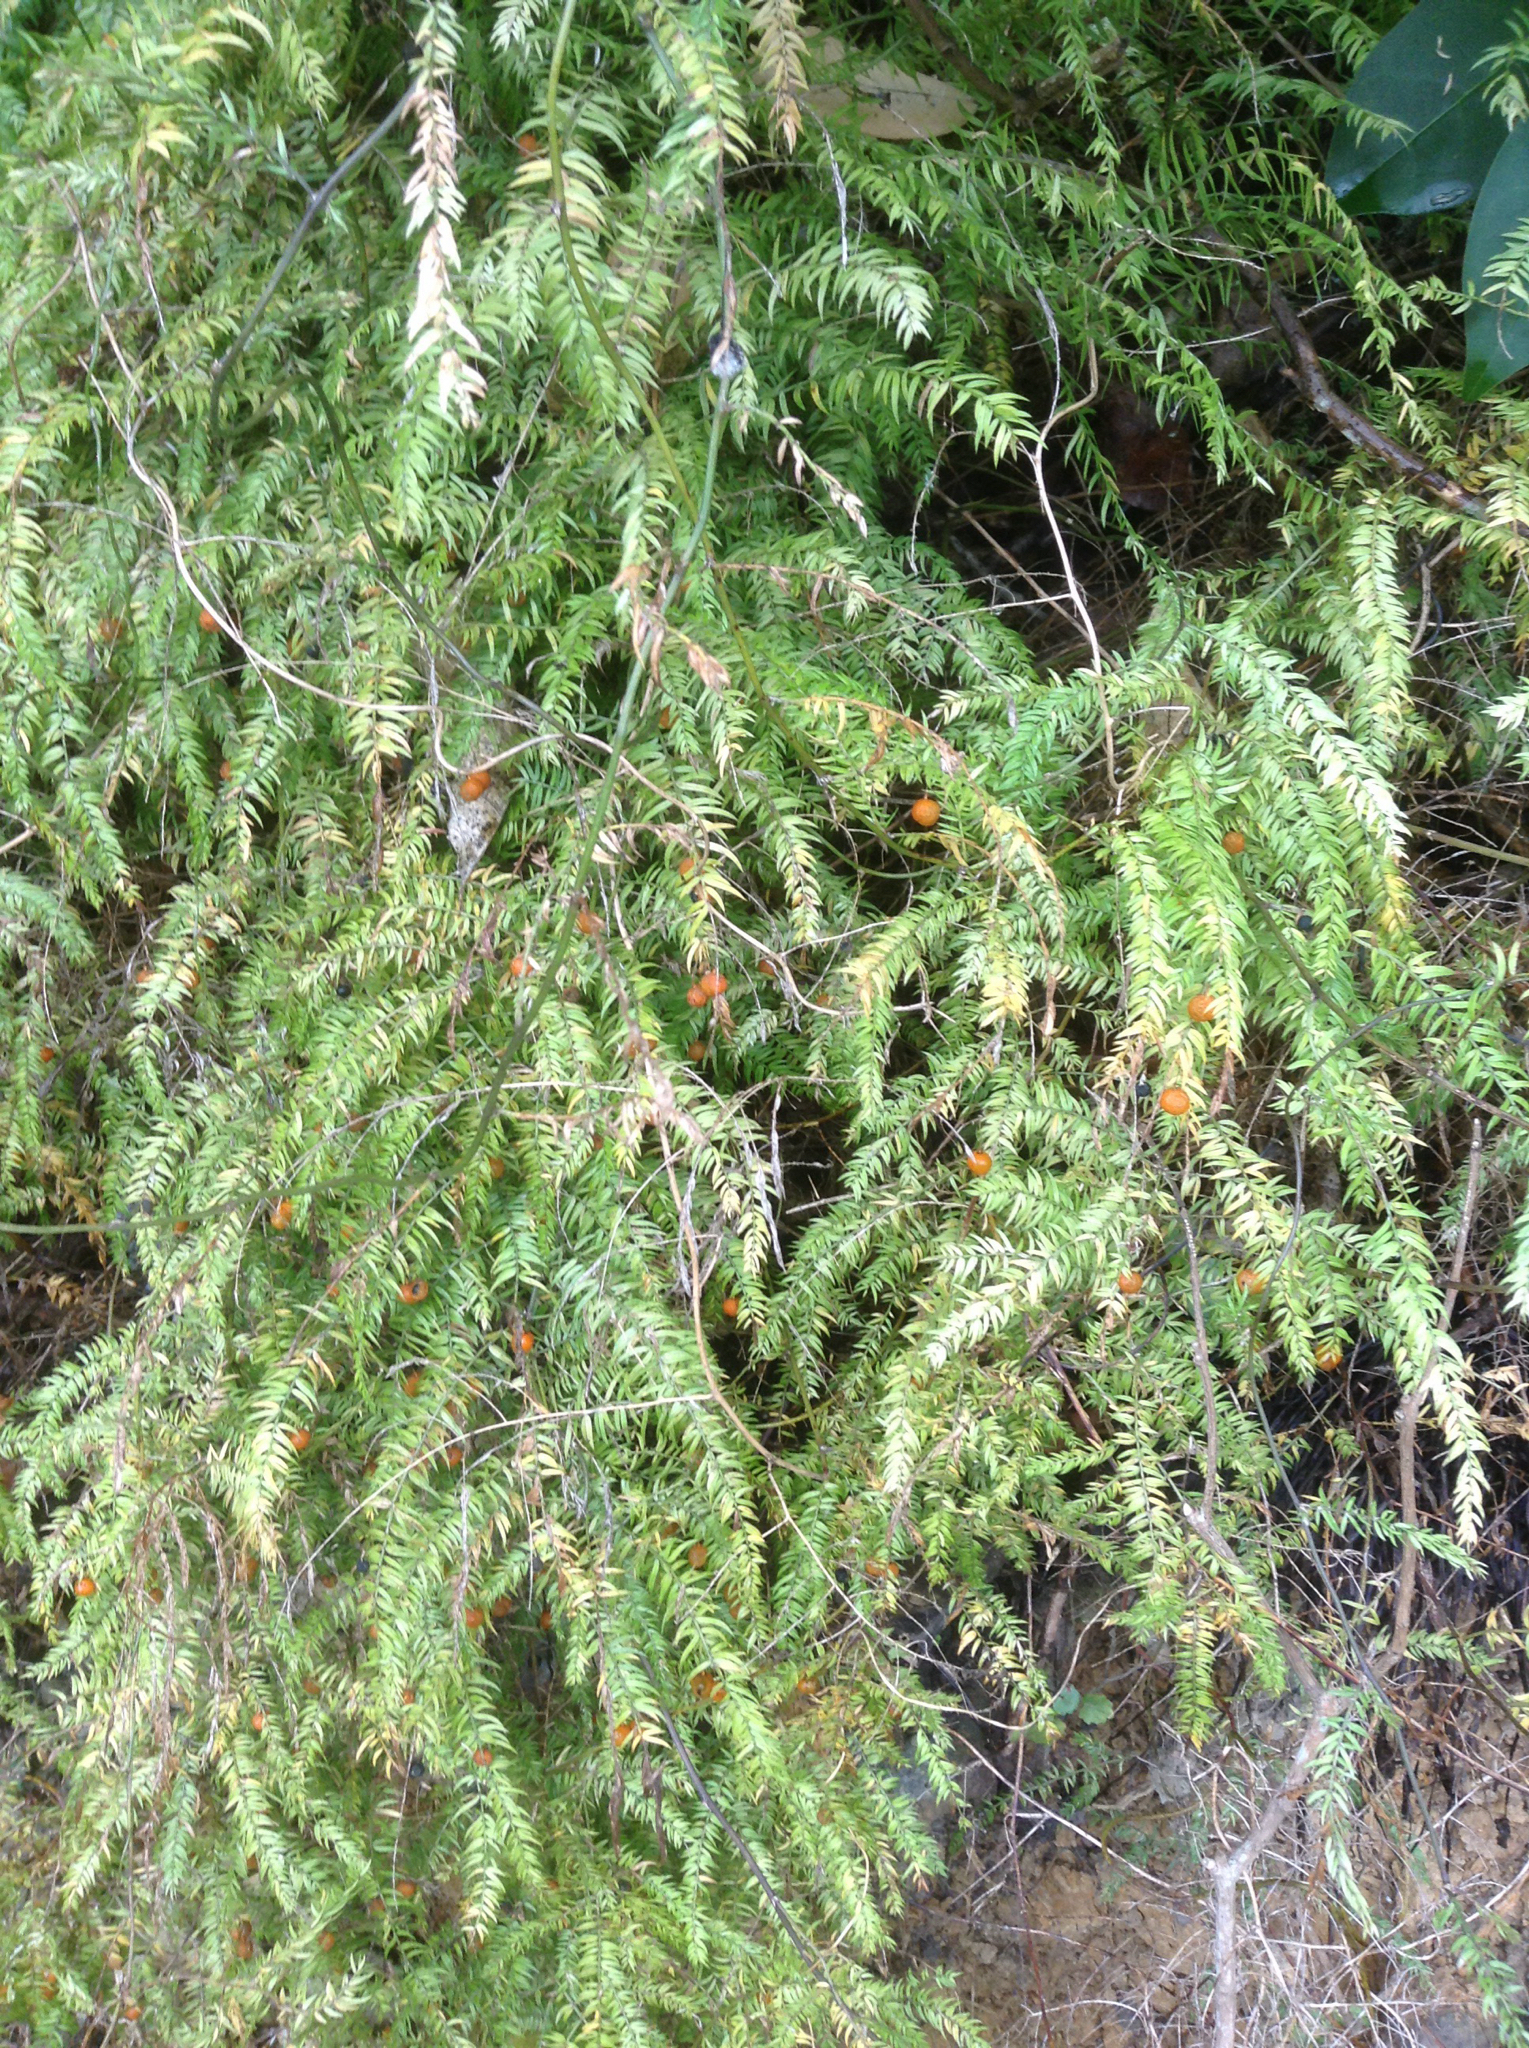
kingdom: Plantae
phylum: Tracheophyta
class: Liliopsida
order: Asparagales
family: Asparagaceae
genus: Asparagus
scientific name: Asparagus scandens
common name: Asparagus-fern
